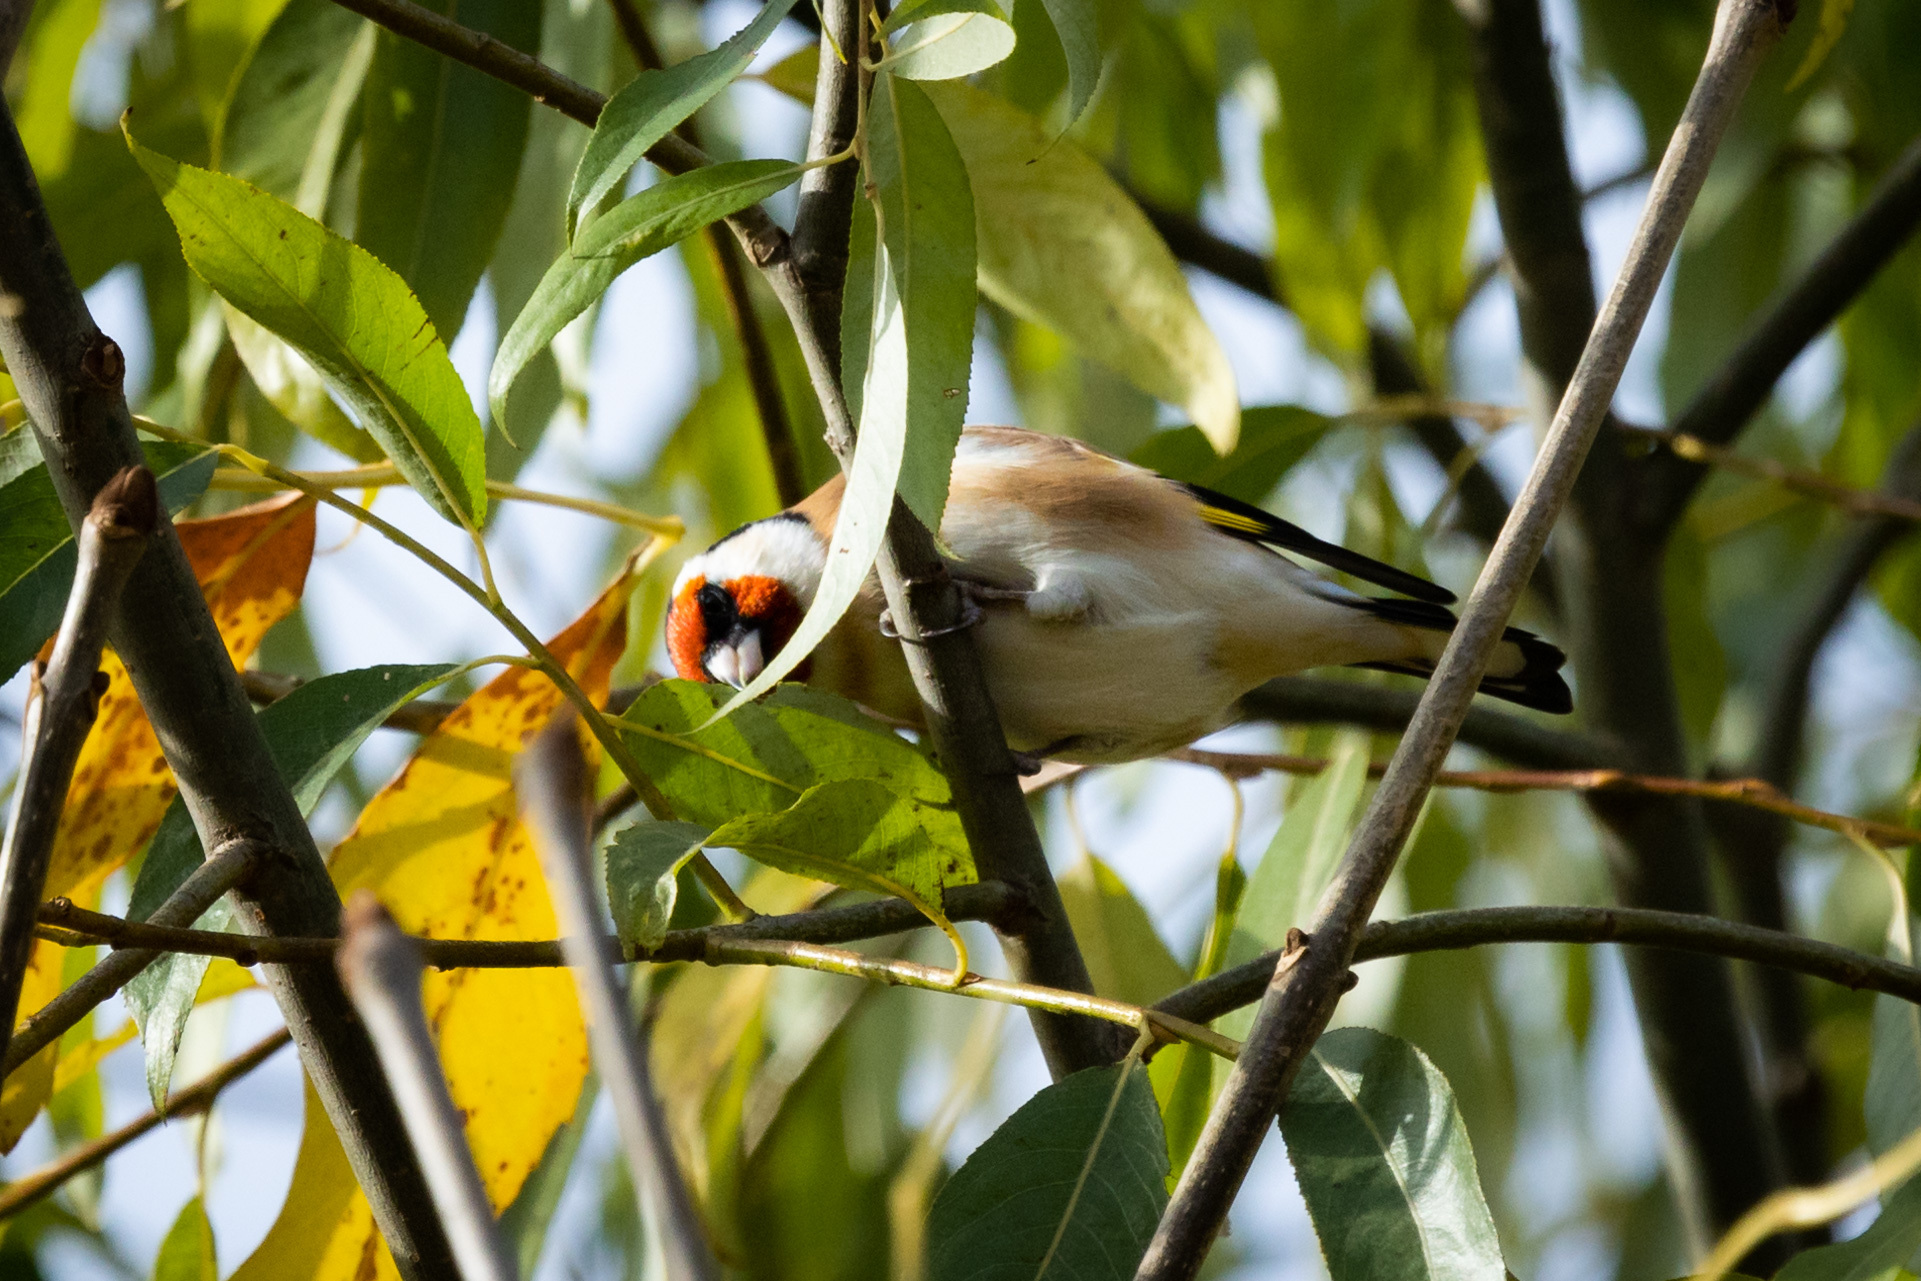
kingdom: Animalia
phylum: Chordata
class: Aves
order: Passeriformes
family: Fringillidae
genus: Carduelis
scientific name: Carduelis carduelis
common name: European goldfinch
